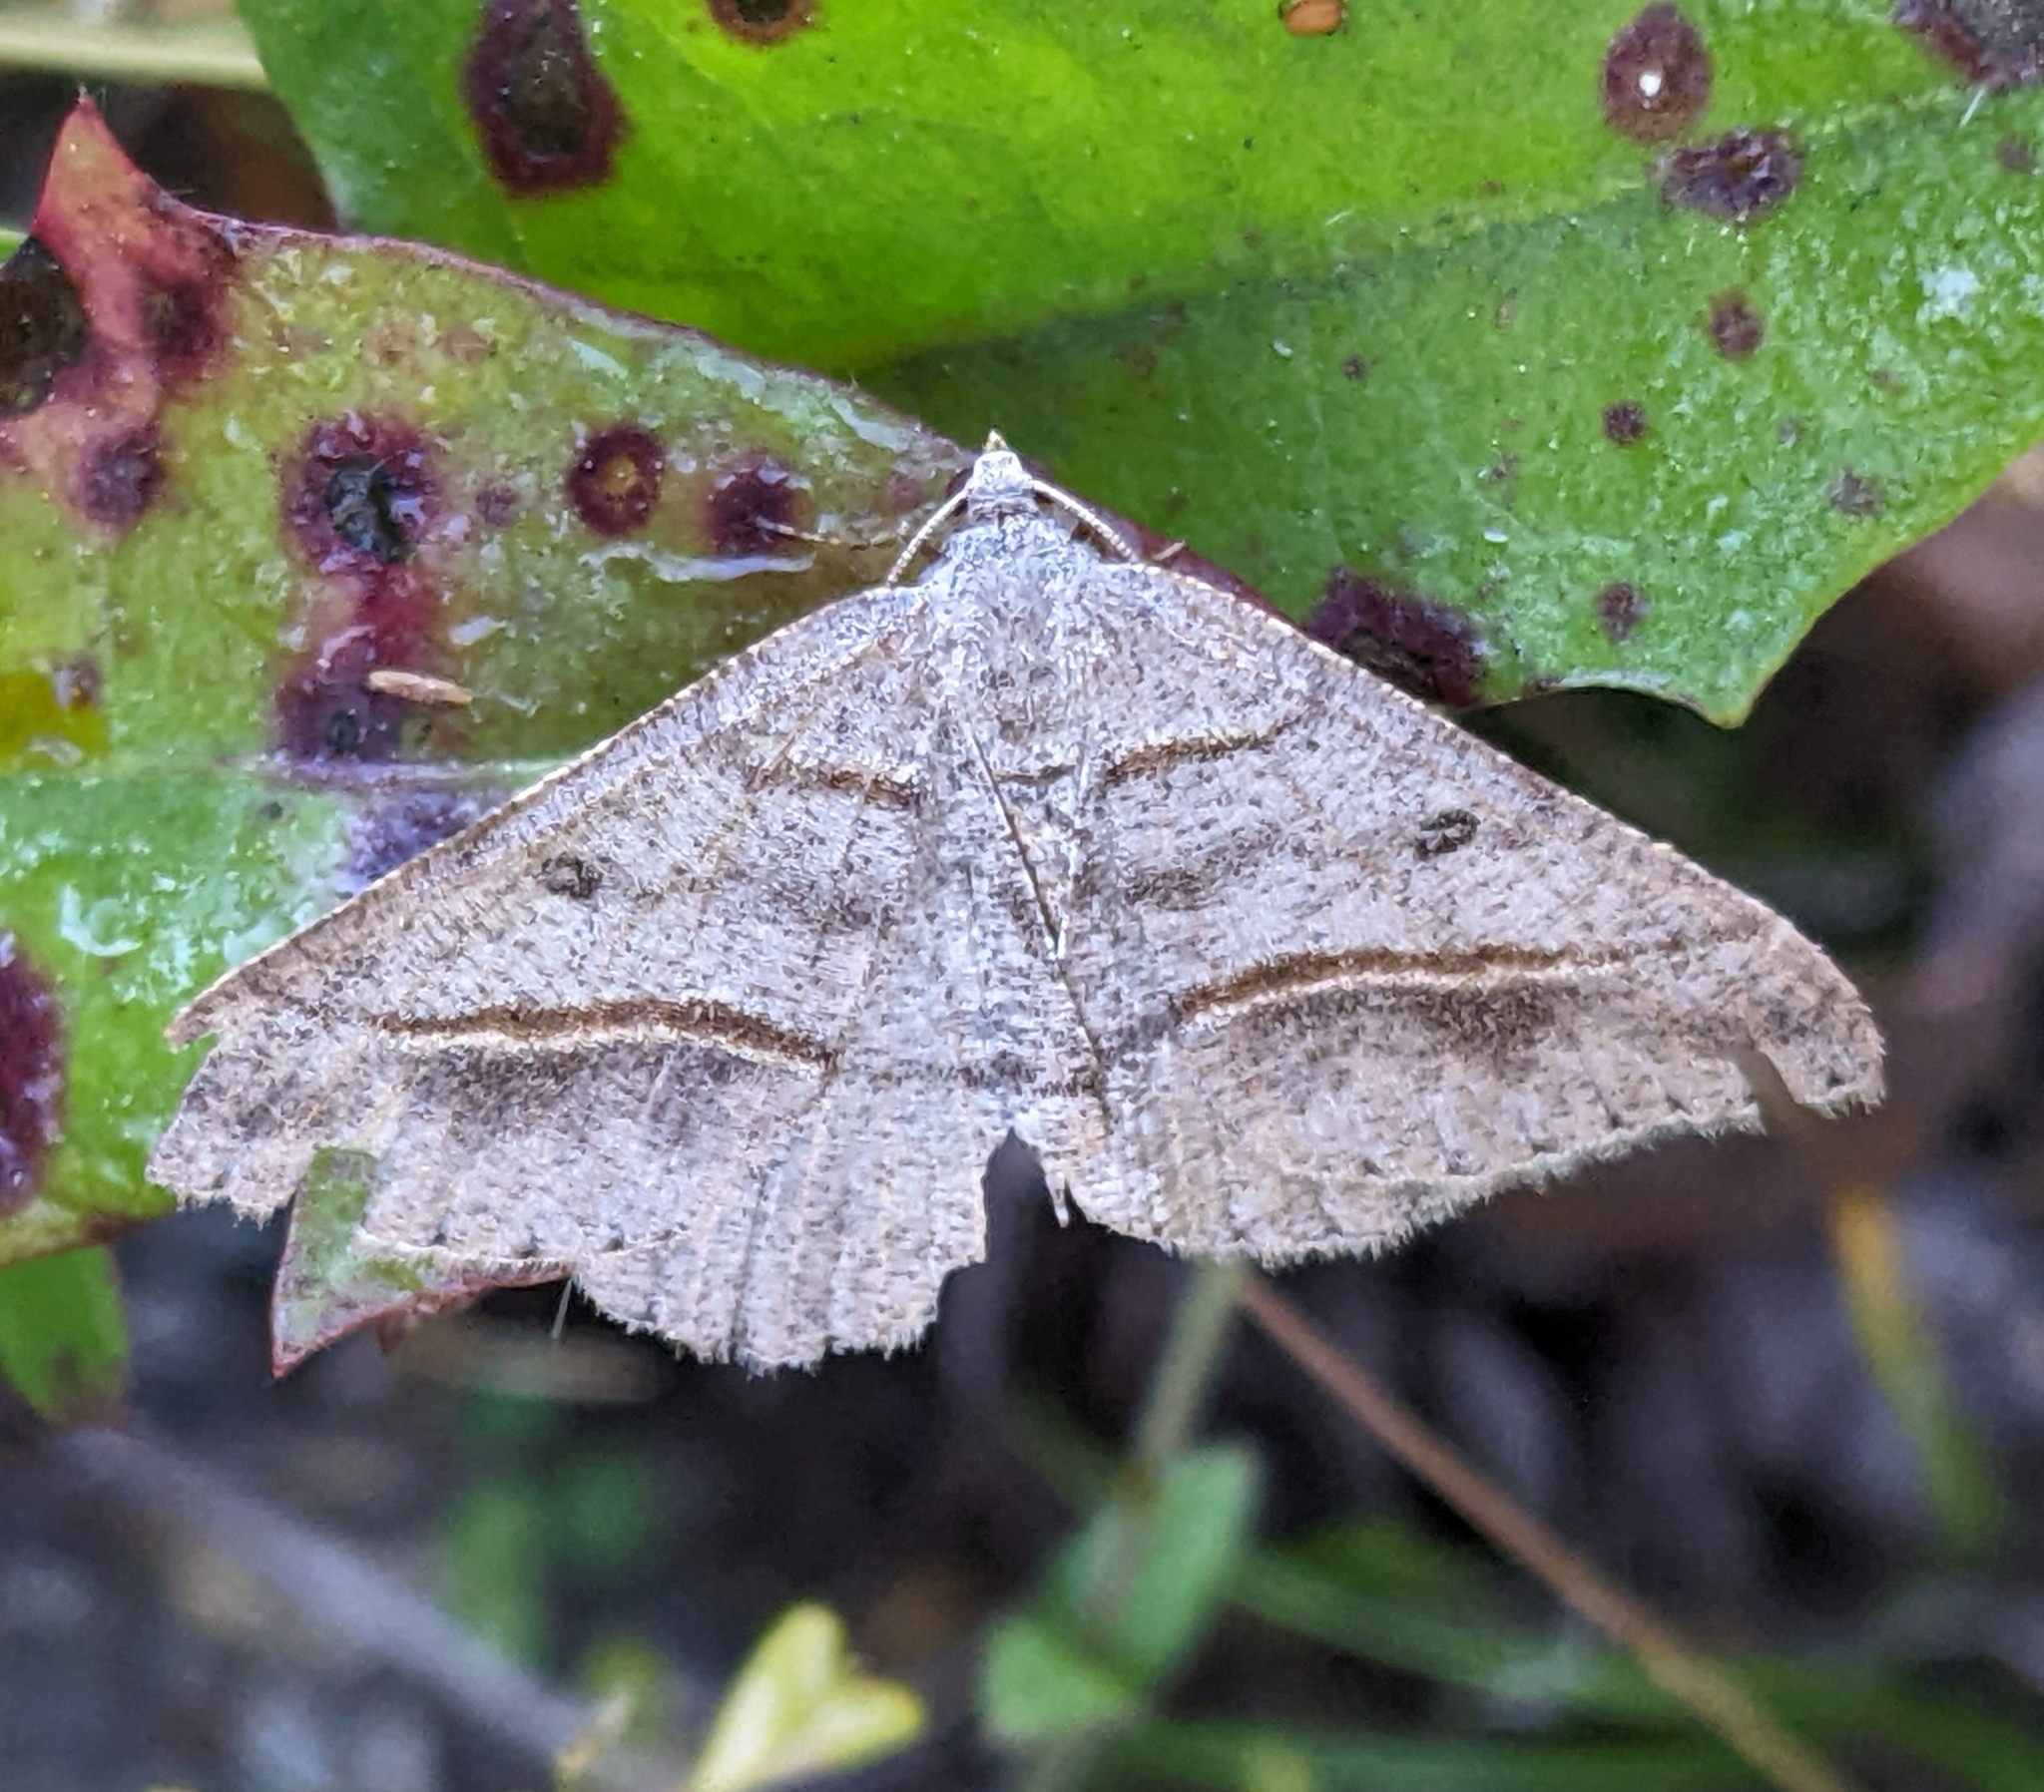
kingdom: Animalia
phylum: Arthropoda
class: Insecta
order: Lepidoptera
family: Geometridae
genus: Digrammia
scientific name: Digrammia neptaria
